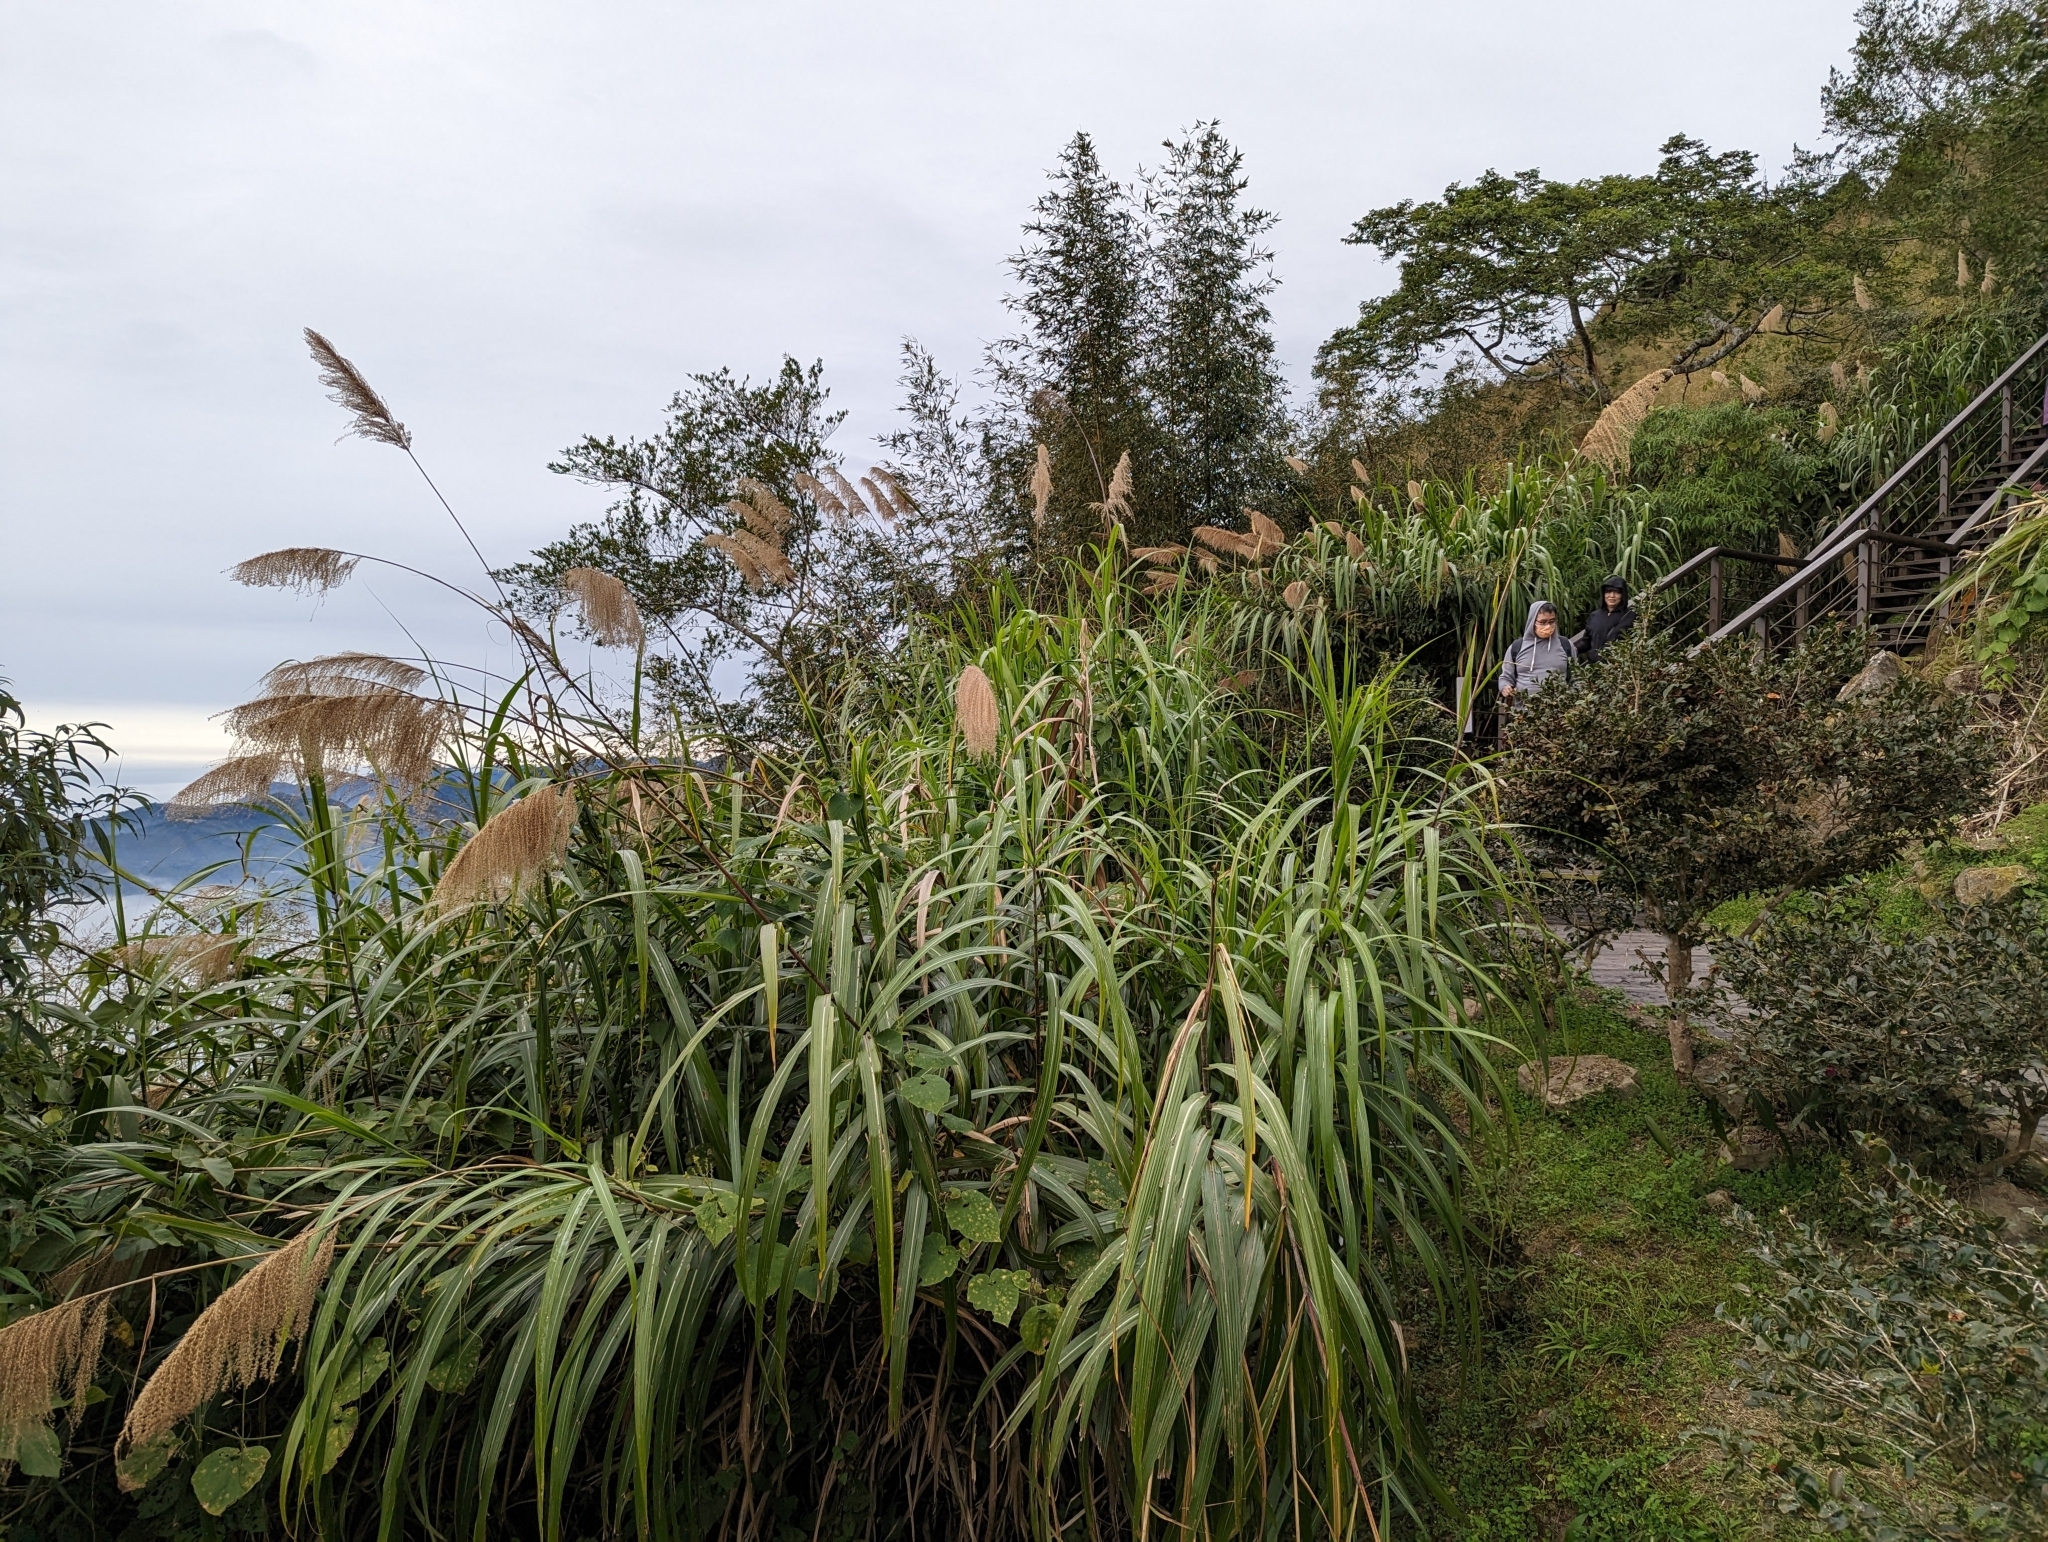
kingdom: Plantae
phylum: Tracheophyta
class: Liliopsida
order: Poales
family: Poaceae
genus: Miscanthus
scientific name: Miscanthus sinensis
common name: Chinese silvergrass
